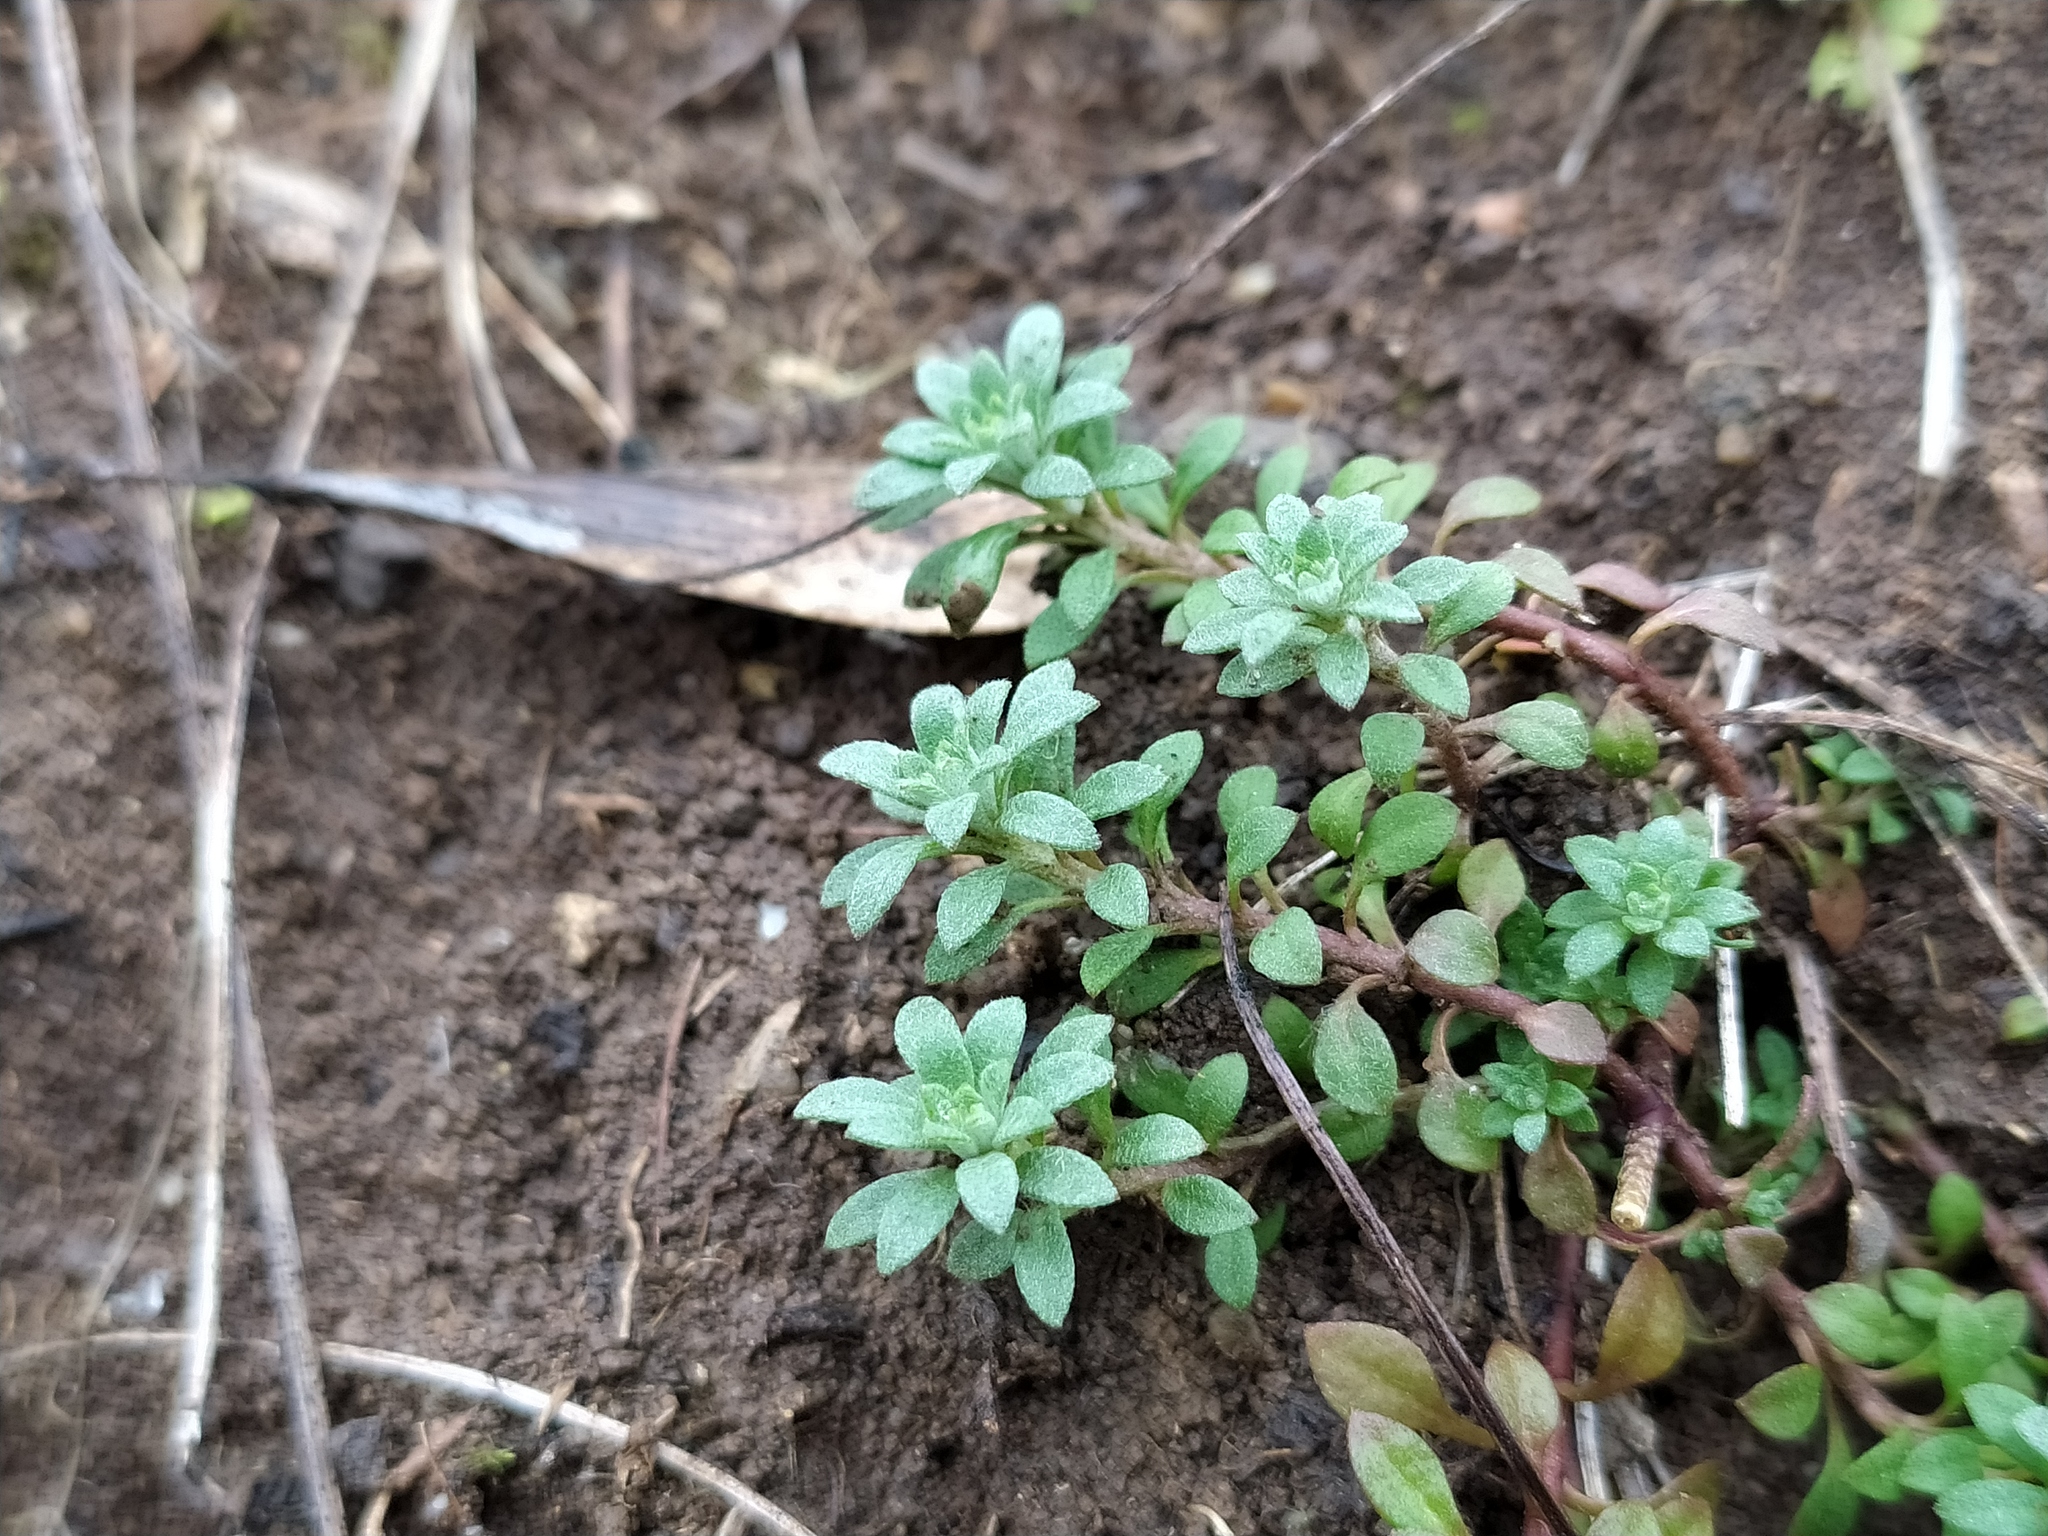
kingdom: Plantae
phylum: Tracheophyta
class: Magnoliopsida
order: Brassicales
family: Brassicaceae
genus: Alyssum
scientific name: Alyssum alyssoides
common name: Small alison
